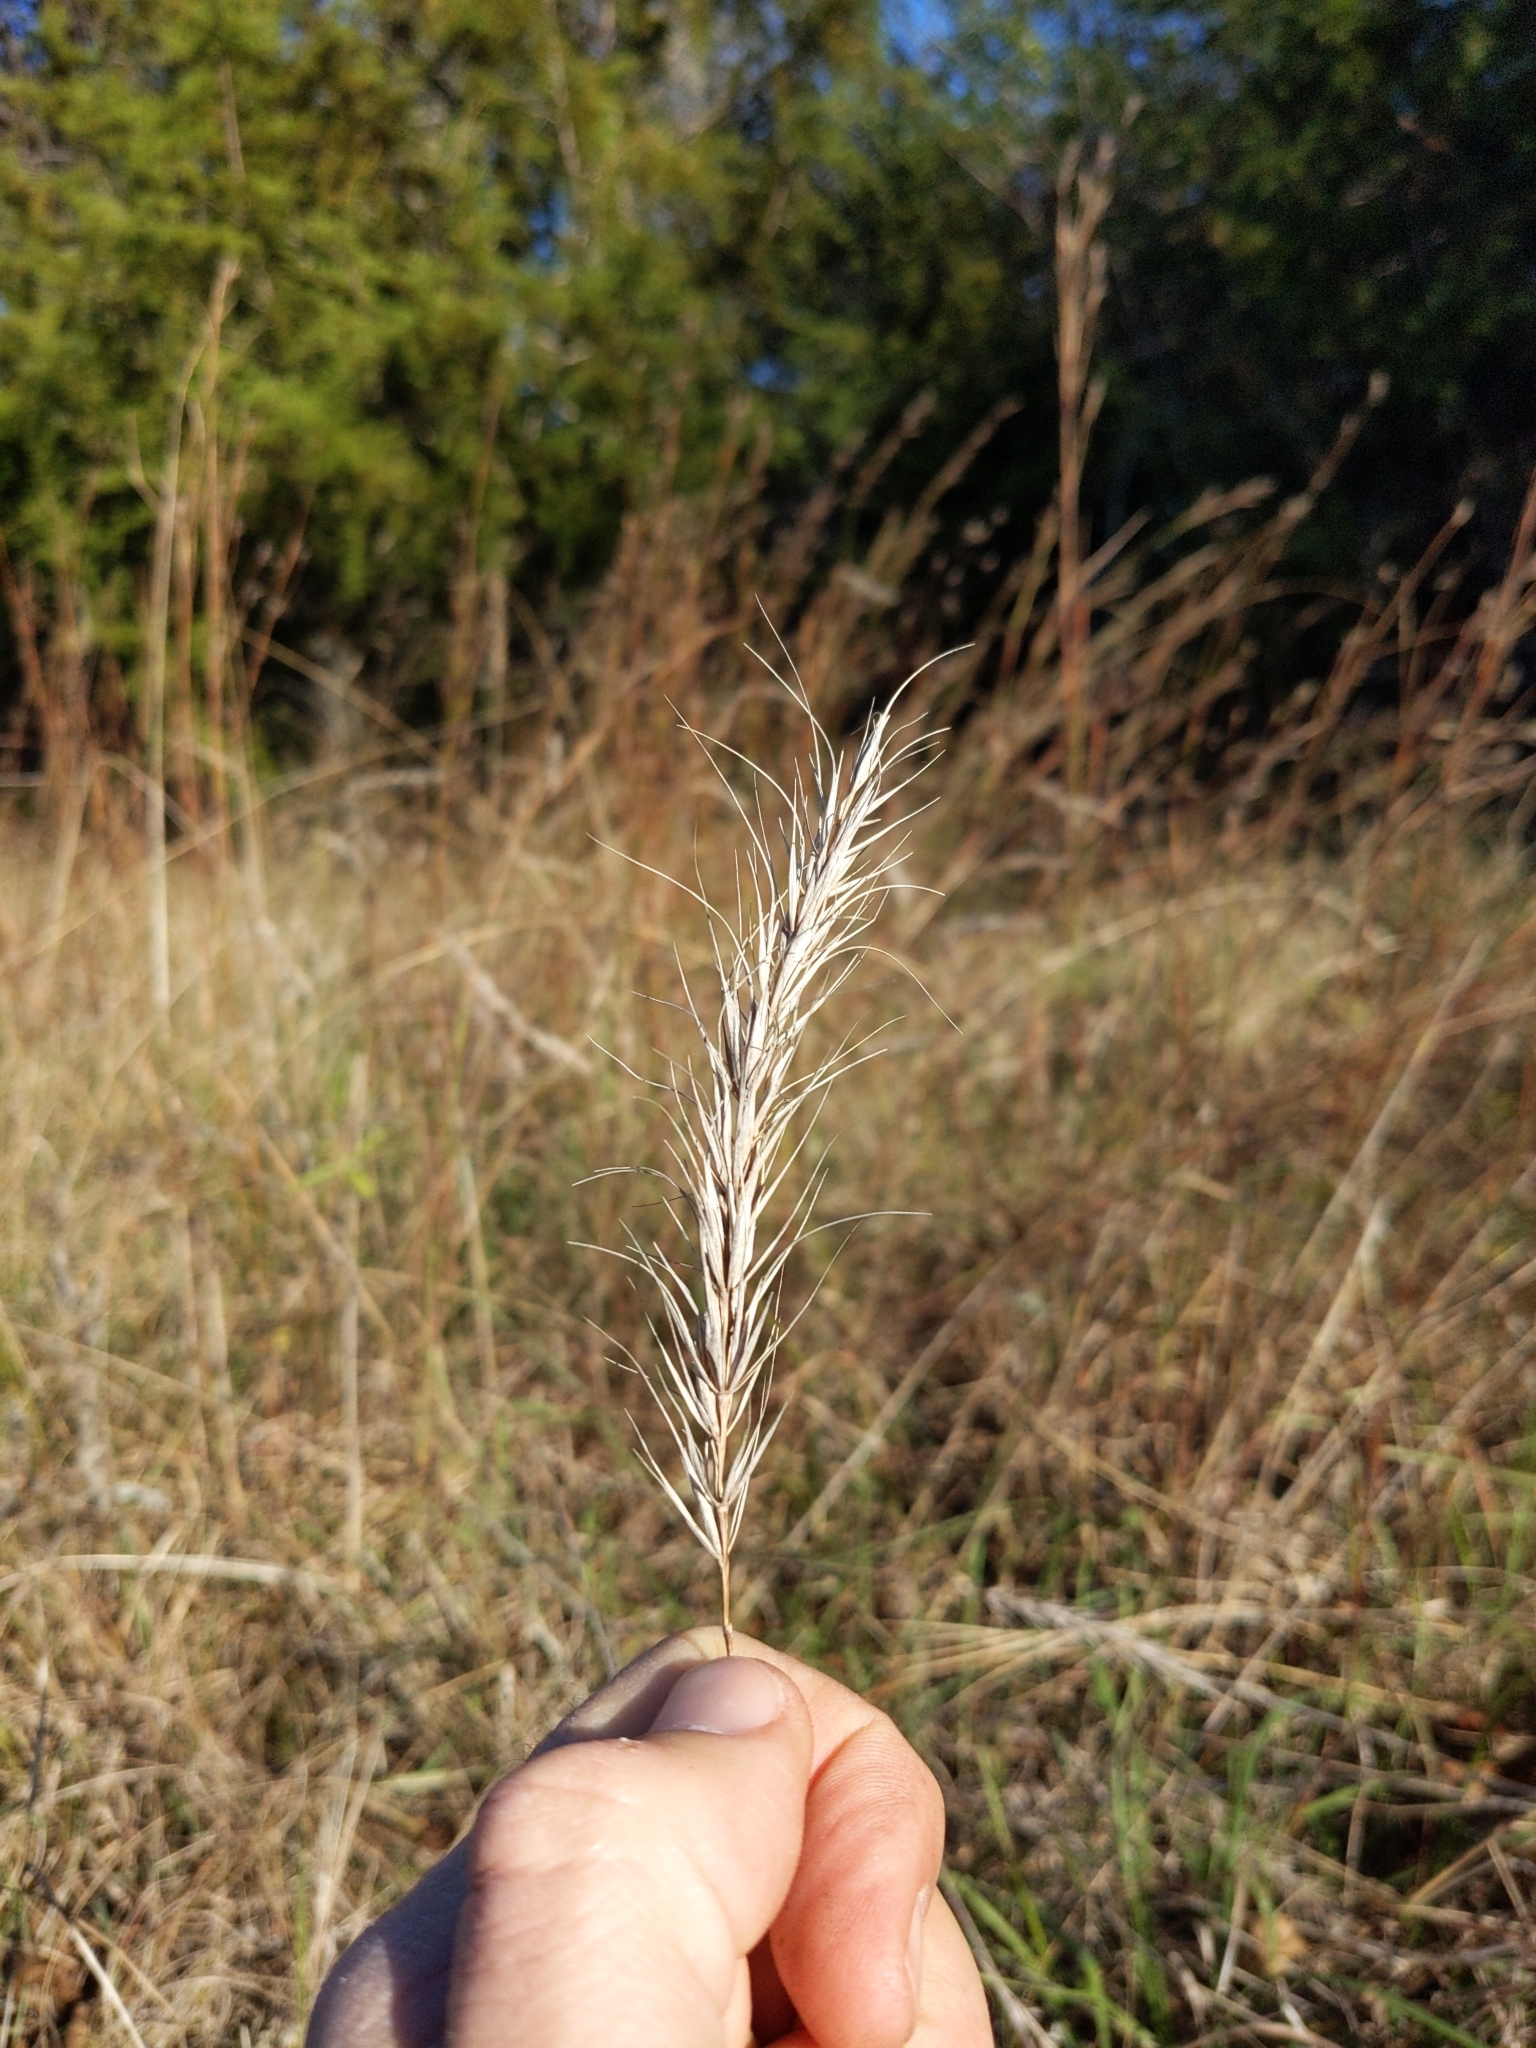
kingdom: Plantae
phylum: Tracheophyta
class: Liliopsida
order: Poales
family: Poaceae
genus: Elymus
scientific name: Elymus canadensis
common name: Canada wild rye
